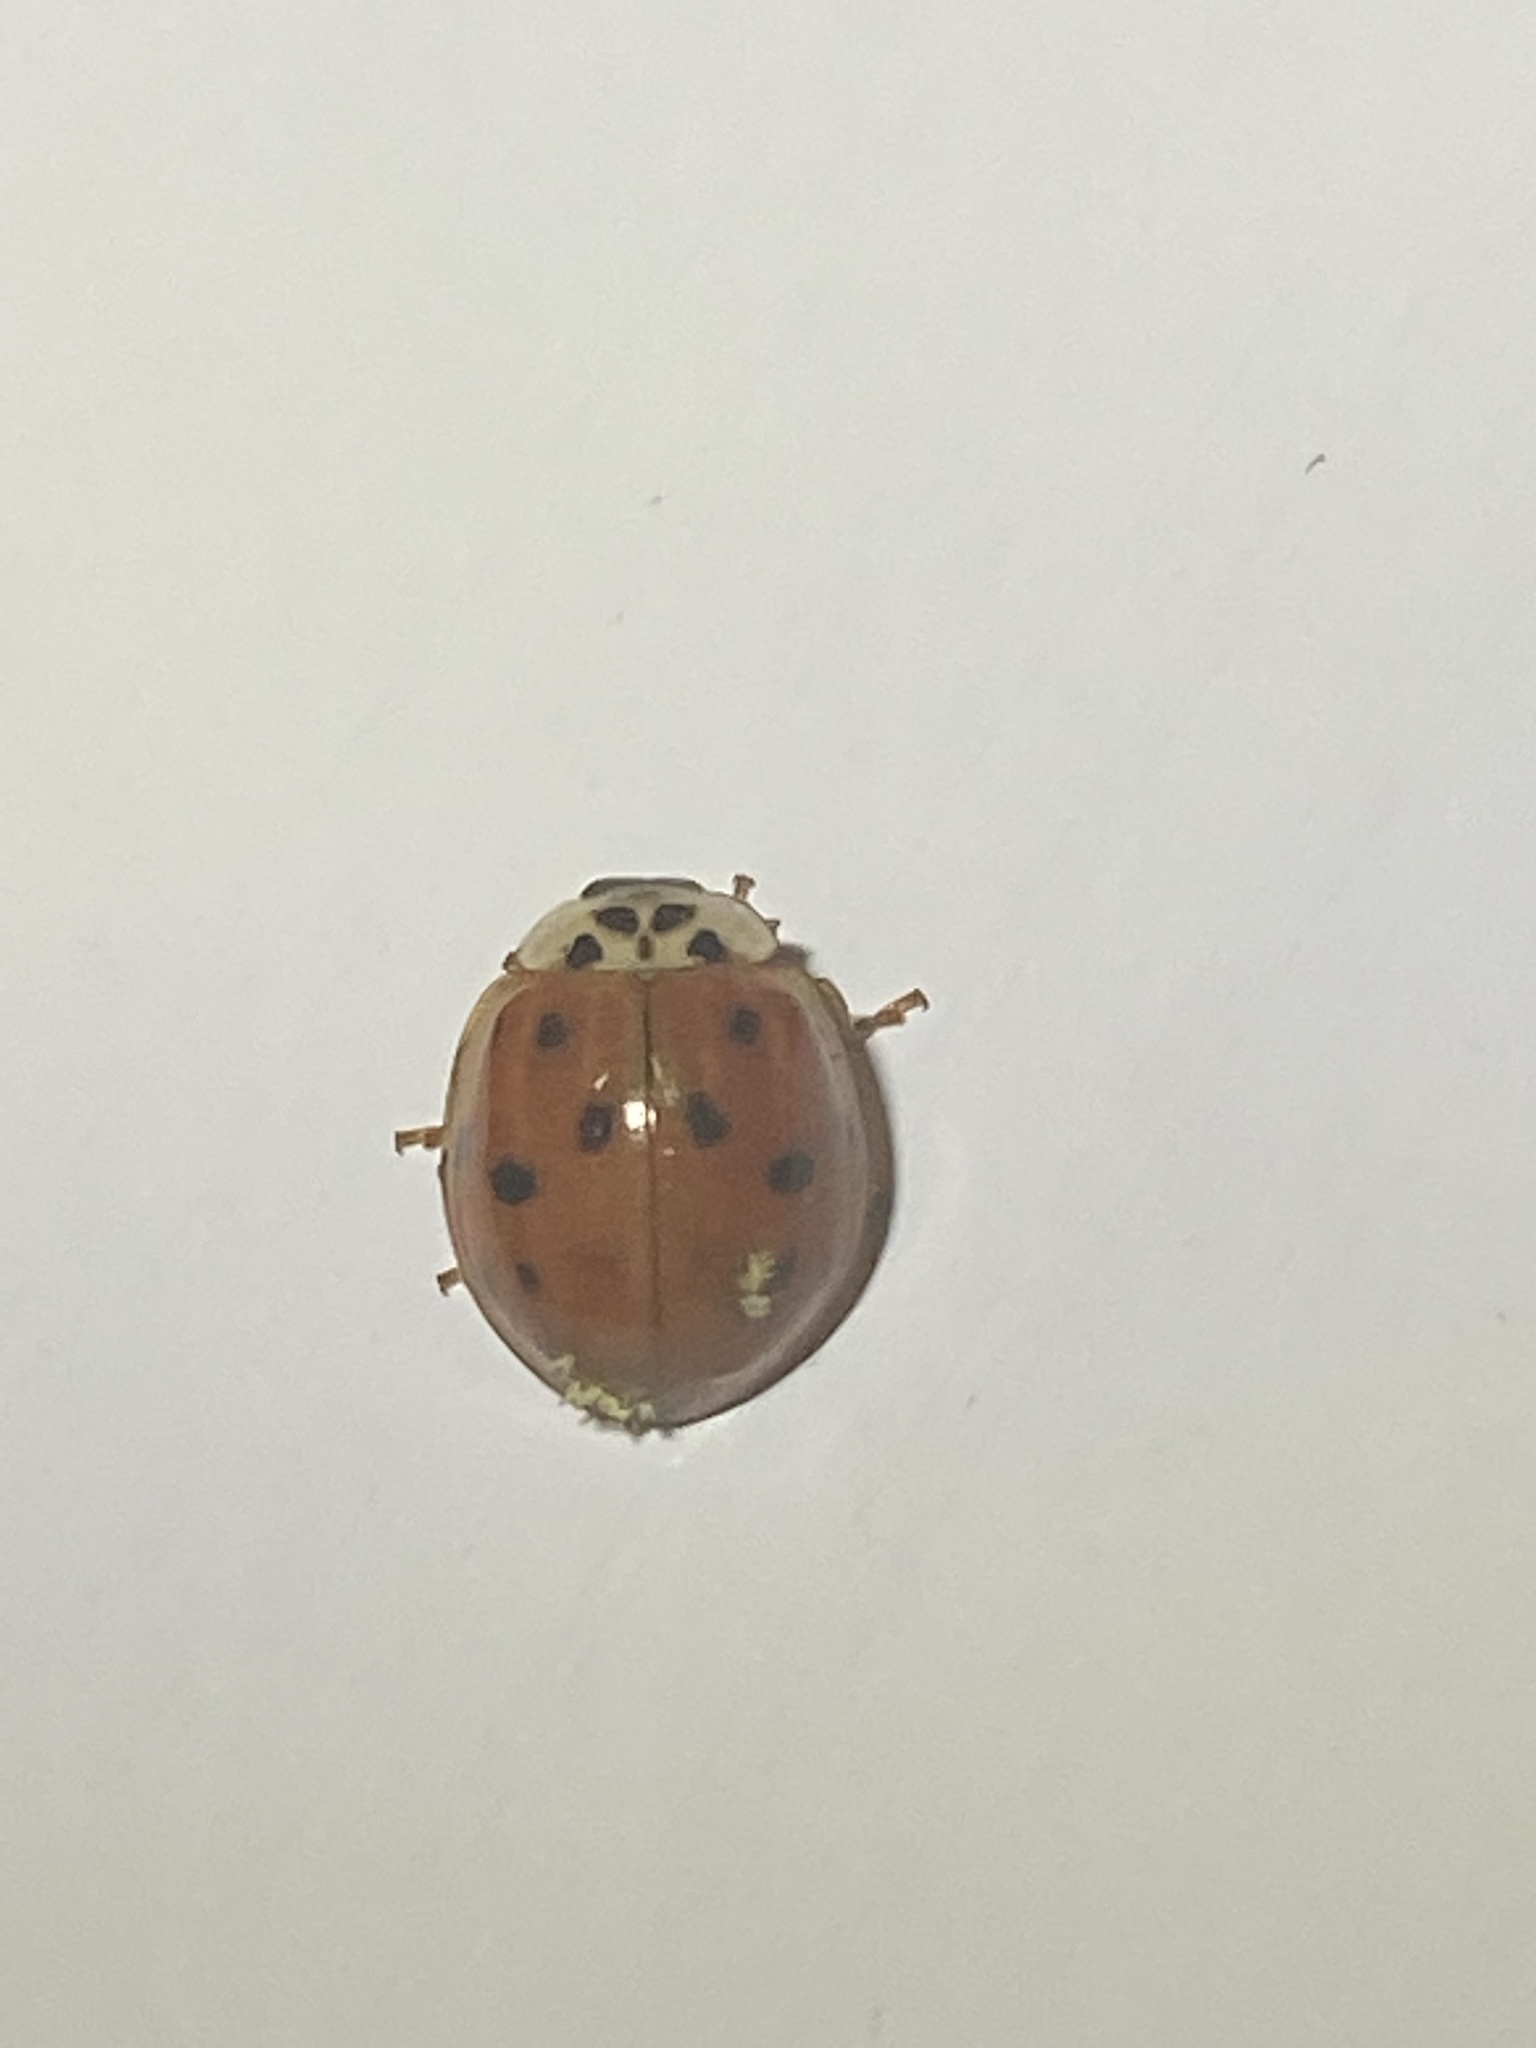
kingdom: Animalia
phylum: Arthropoda
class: Insecta
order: Coleoptera
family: Coccinellidae
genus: Harmonia
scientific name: Harmonia axyridis
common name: Harlequin ladybird
